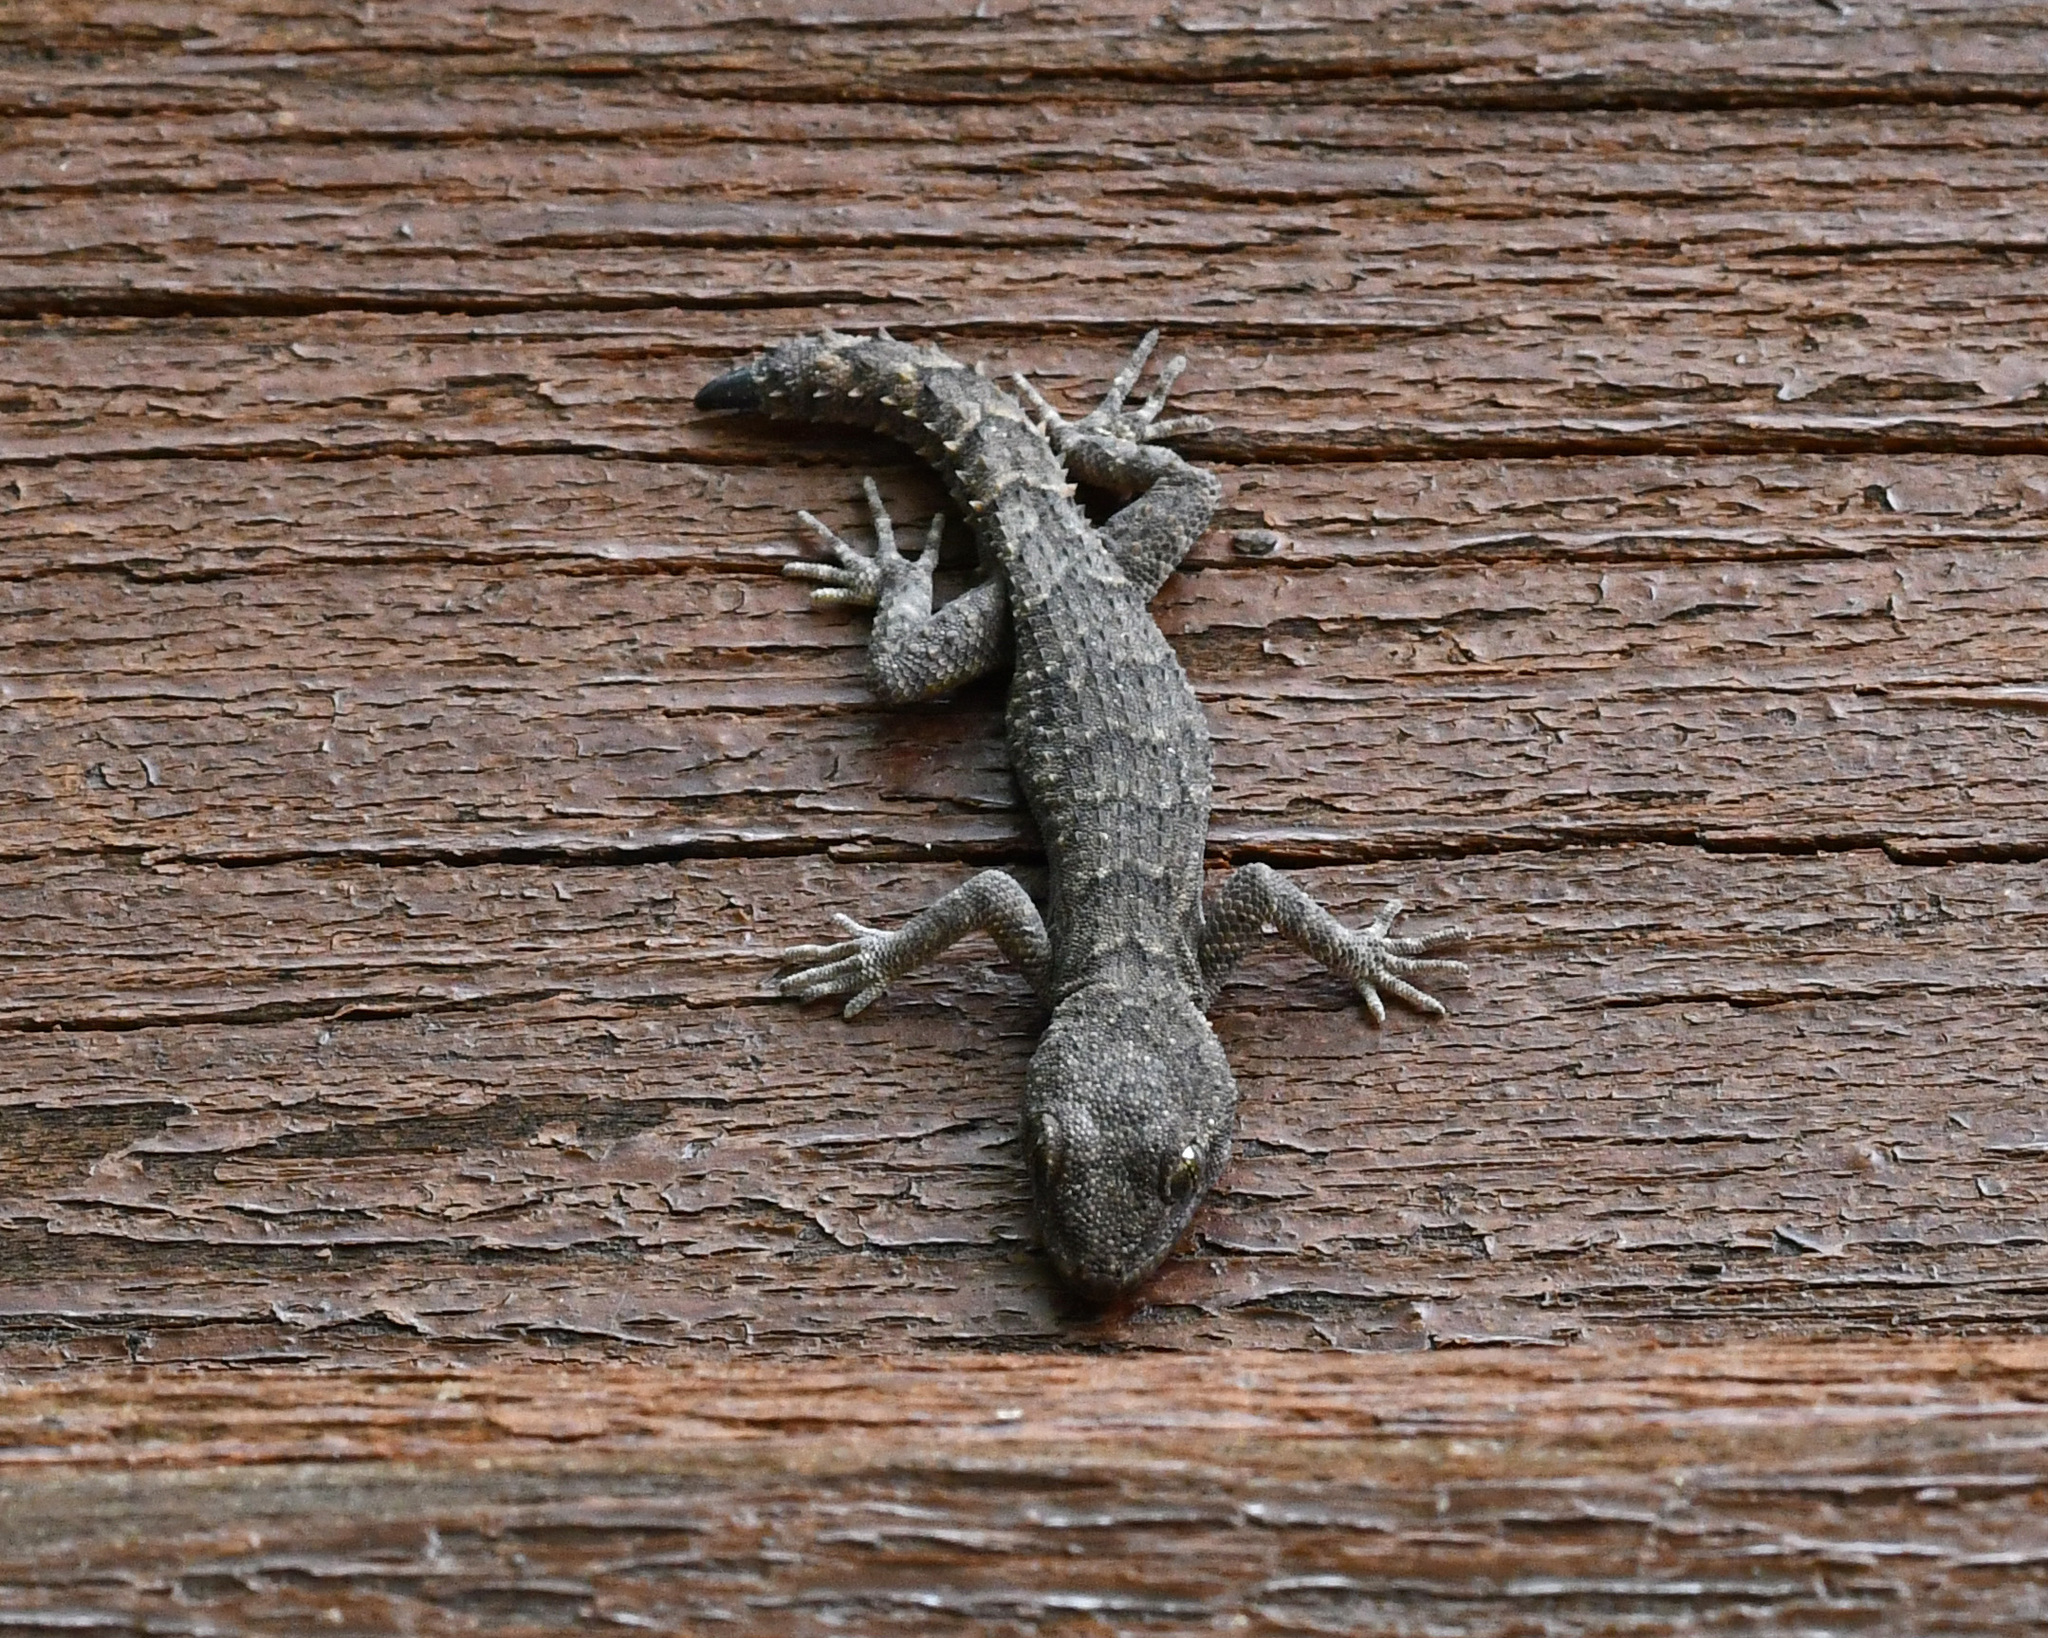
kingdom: Animalia
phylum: Chordata
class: Squamata
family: Gekkonidae
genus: Mediodactylus
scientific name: Mediodactylus orientalis
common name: Mediterranean thin-toed gecko
